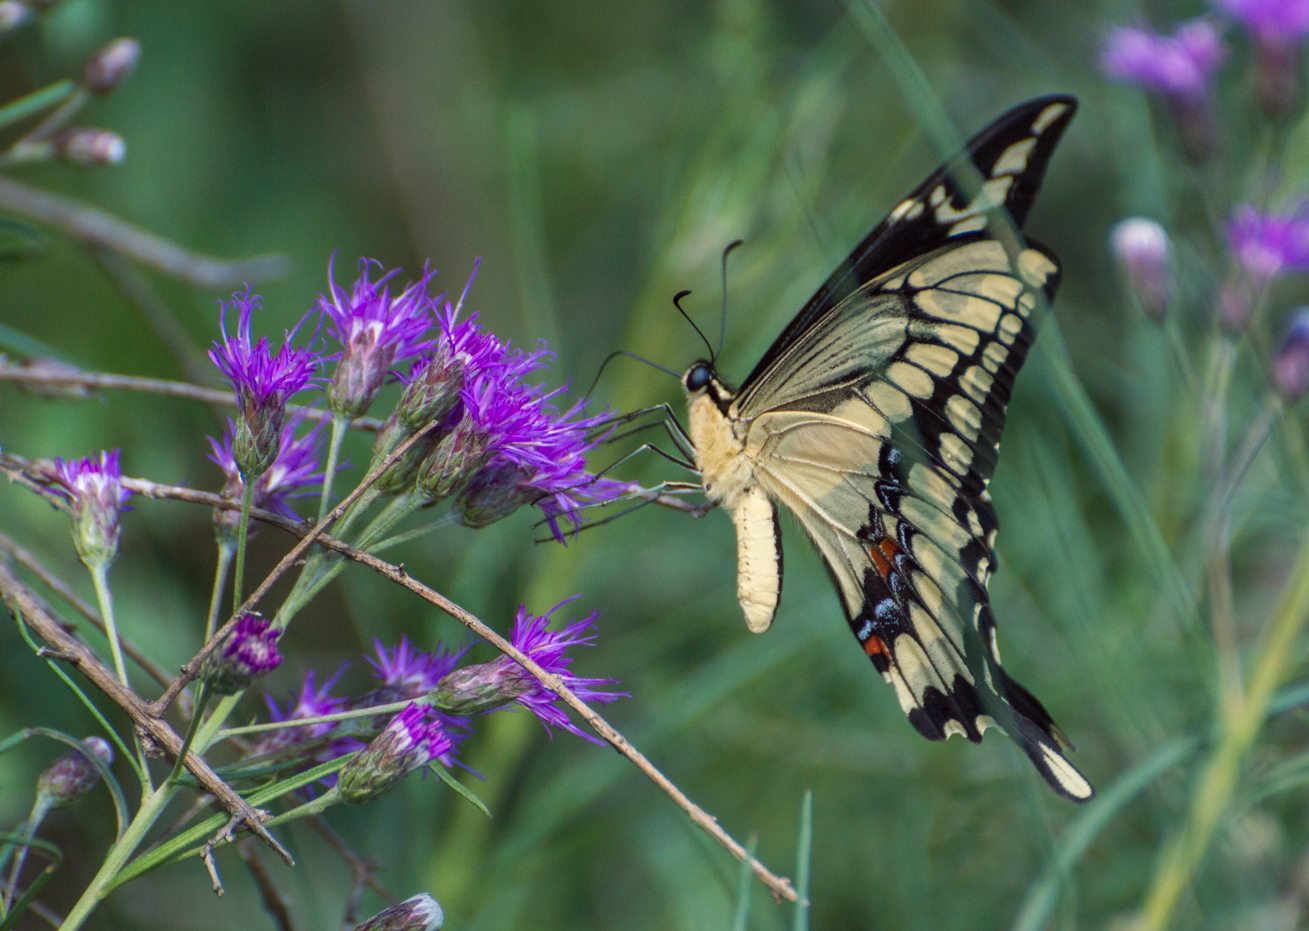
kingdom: Animalia
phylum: Arthropoda
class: Insecta
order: Lepidoptera
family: Papilionidae
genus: Papilio
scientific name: Papilio thoas
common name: King swallowtail
